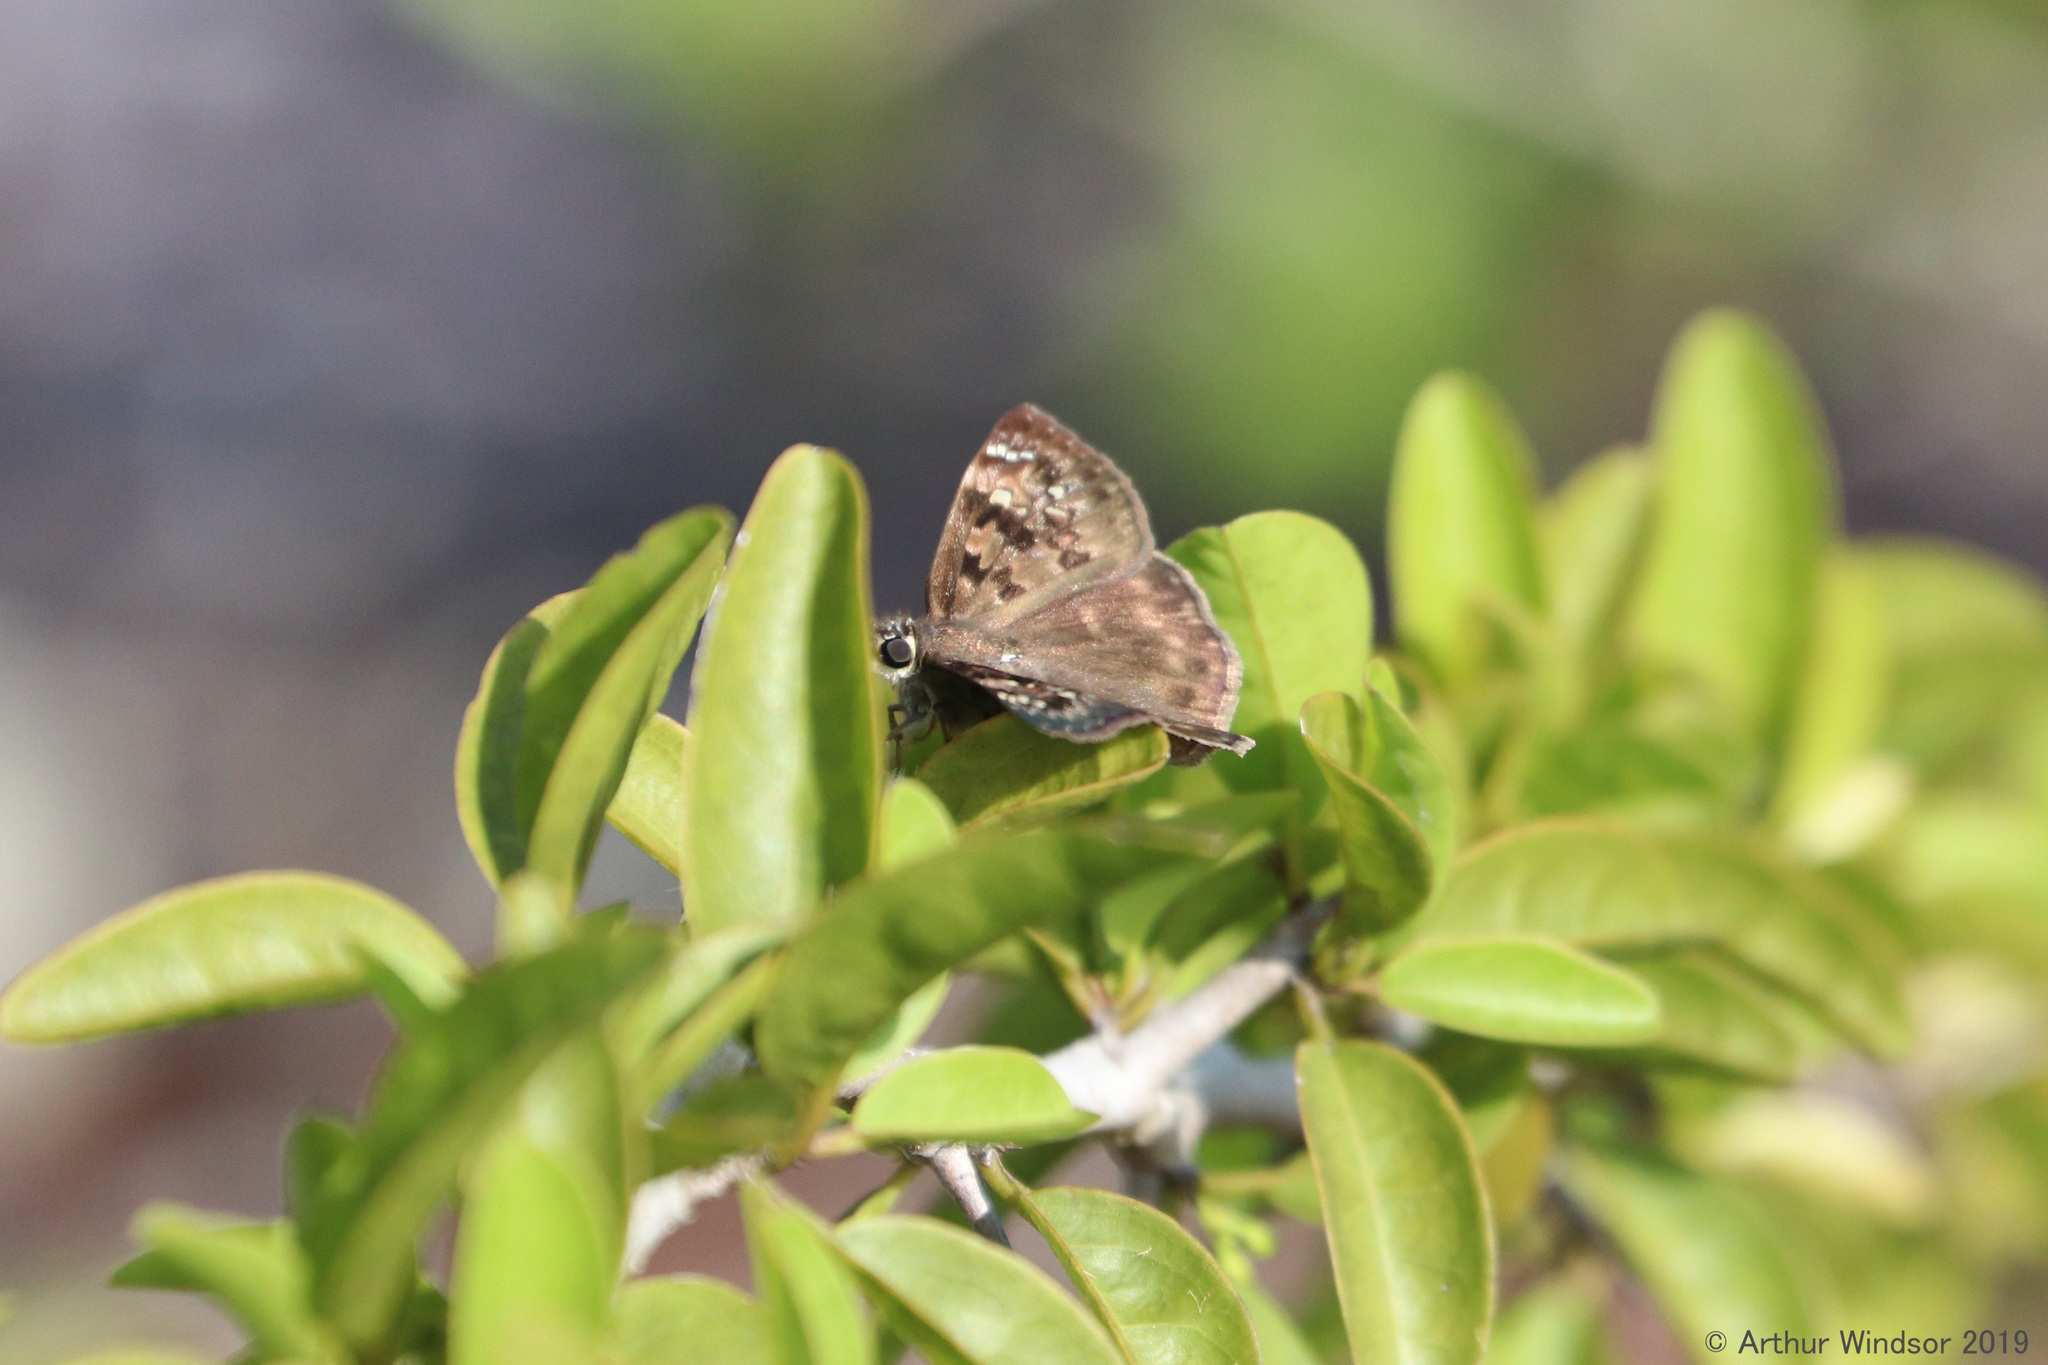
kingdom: Animalia
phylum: Arthropoda
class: Insecta
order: Lepidoptera
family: Hesperiidae
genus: Erynnis
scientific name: Erynnis horatius
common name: Horace's duskywing
